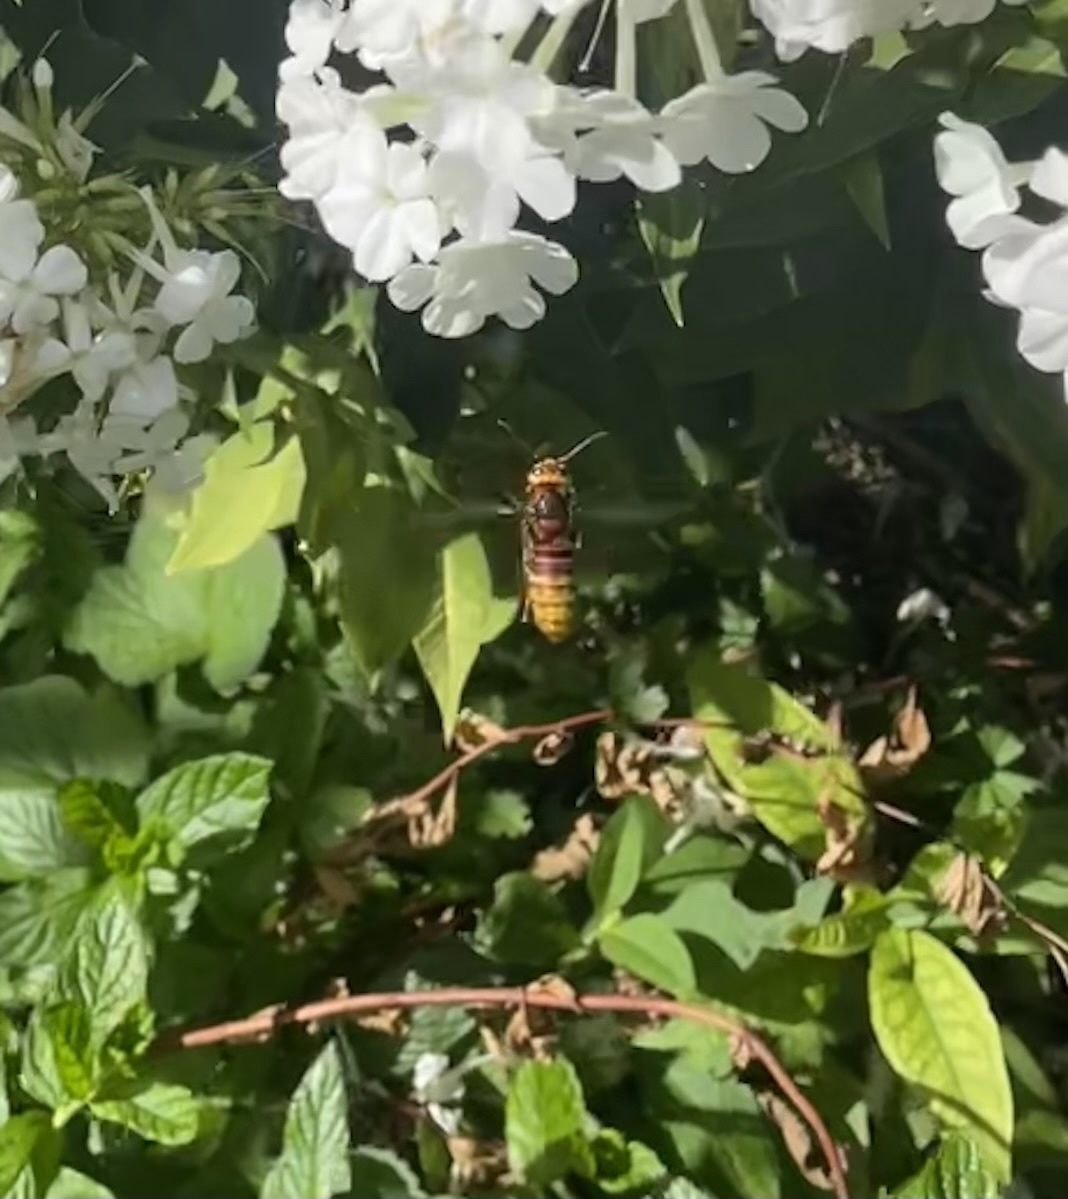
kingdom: Animalia
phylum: Arthropoda
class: Insecta
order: Hymenoptera
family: Vespidae
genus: Vespa
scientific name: Vespa crabro
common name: Hornet
